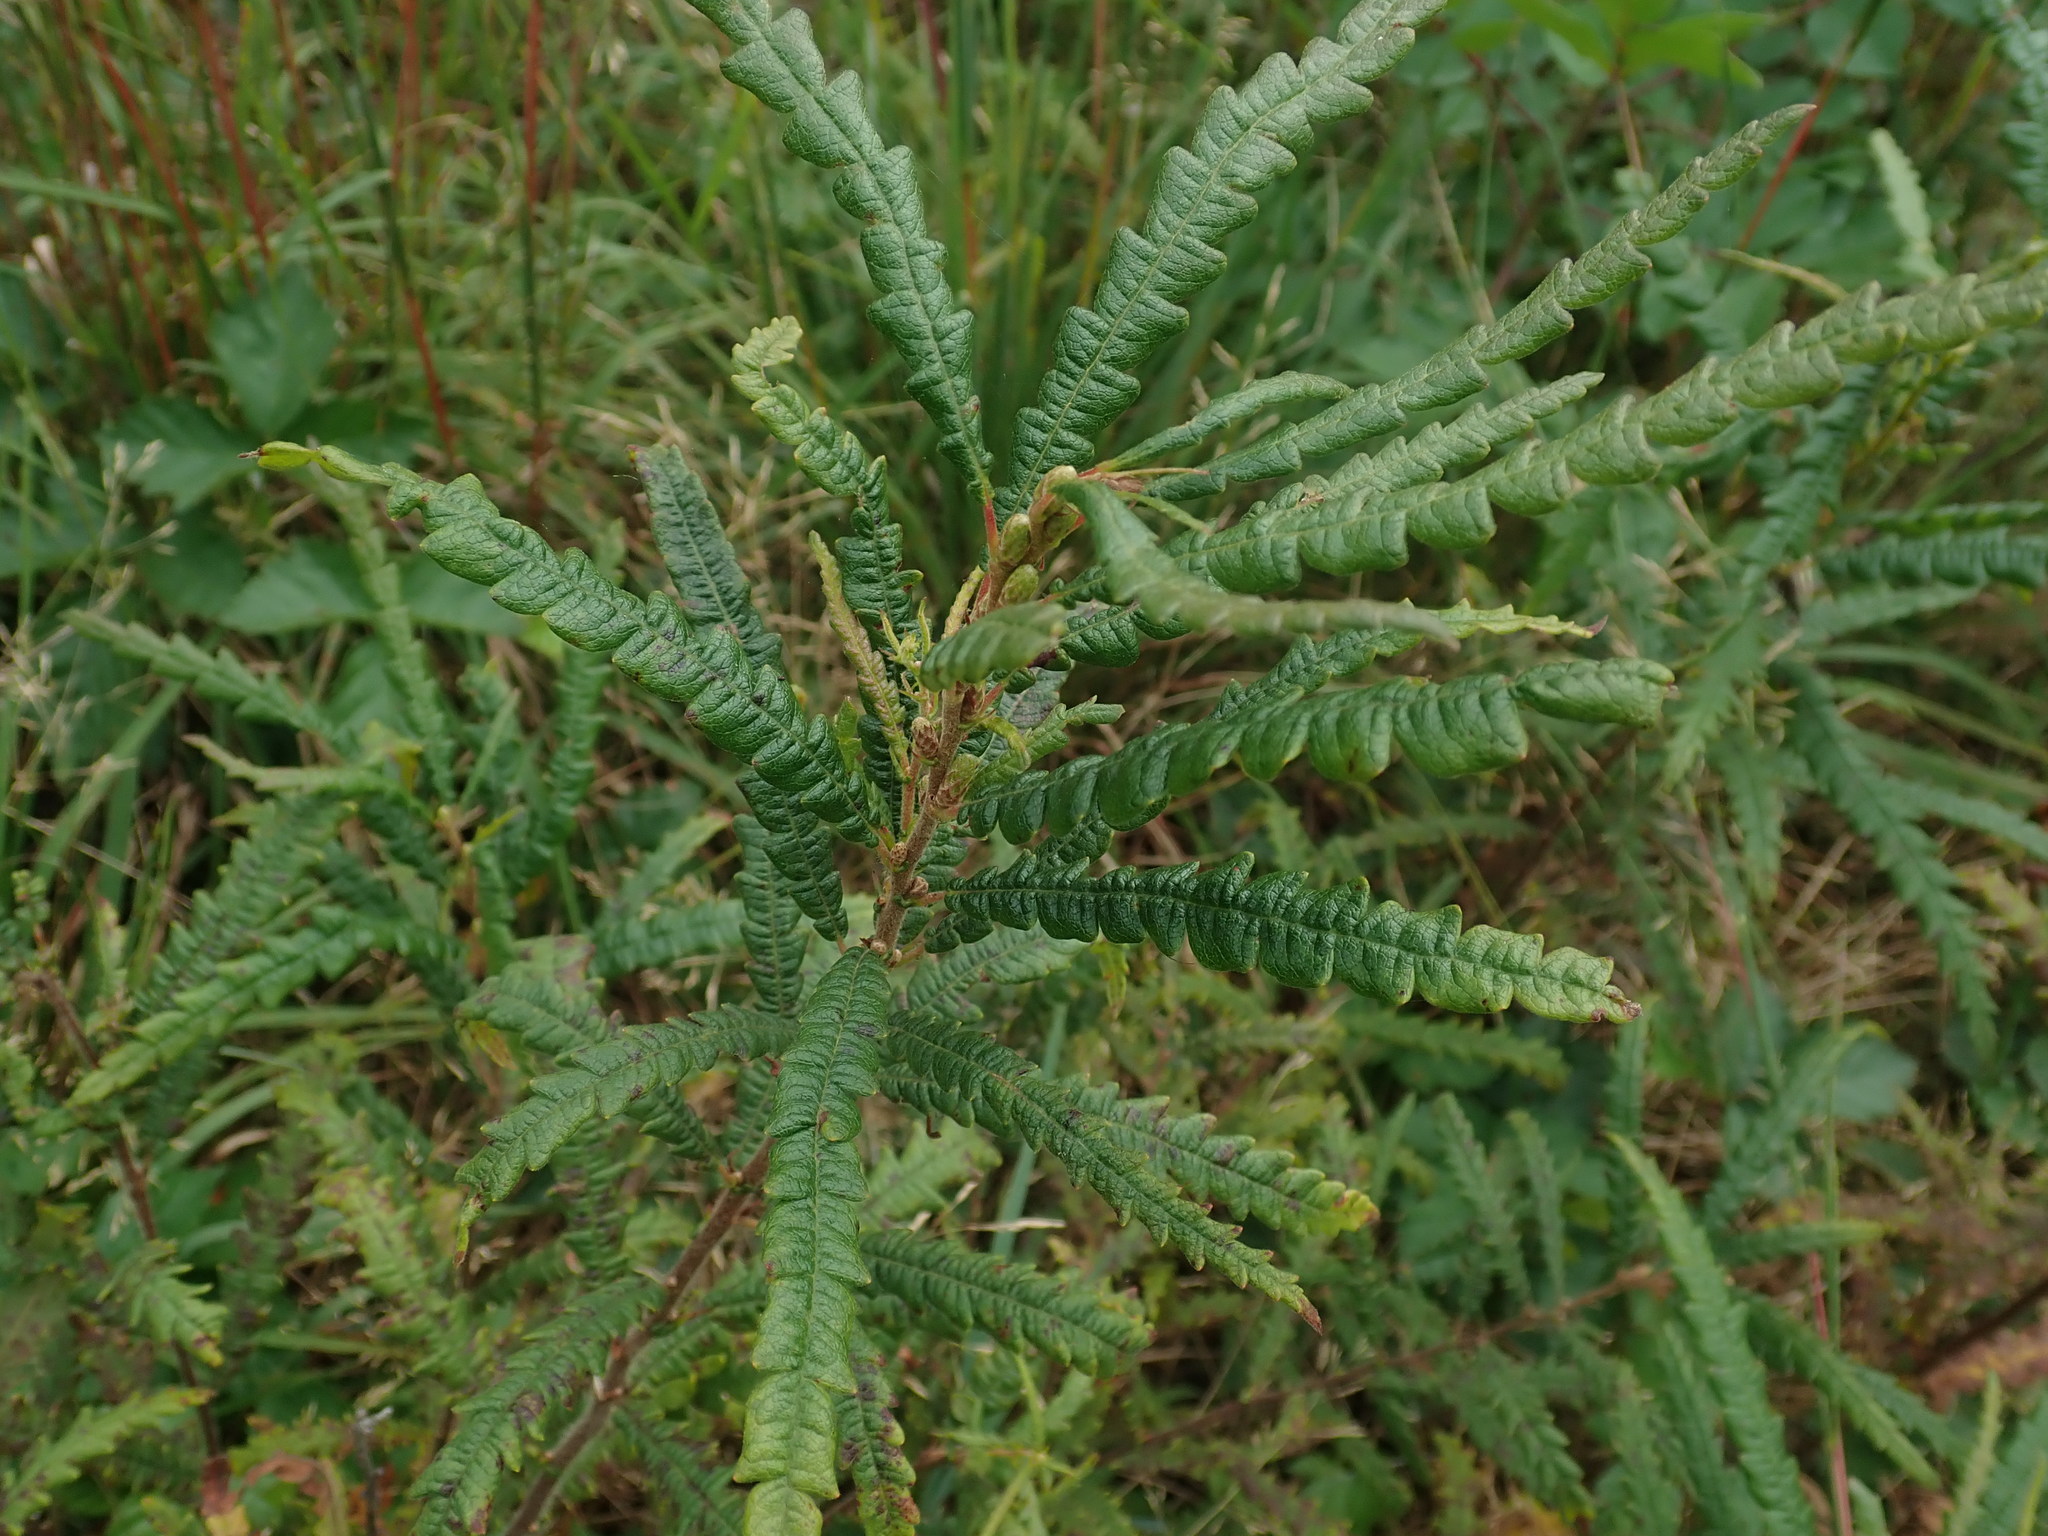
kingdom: Plantae
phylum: Tracheophyta
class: Magnoliopsida
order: Fagales
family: Myricaceae
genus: Comptonia
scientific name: Comptonia peregrina
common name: Sweet-fern
